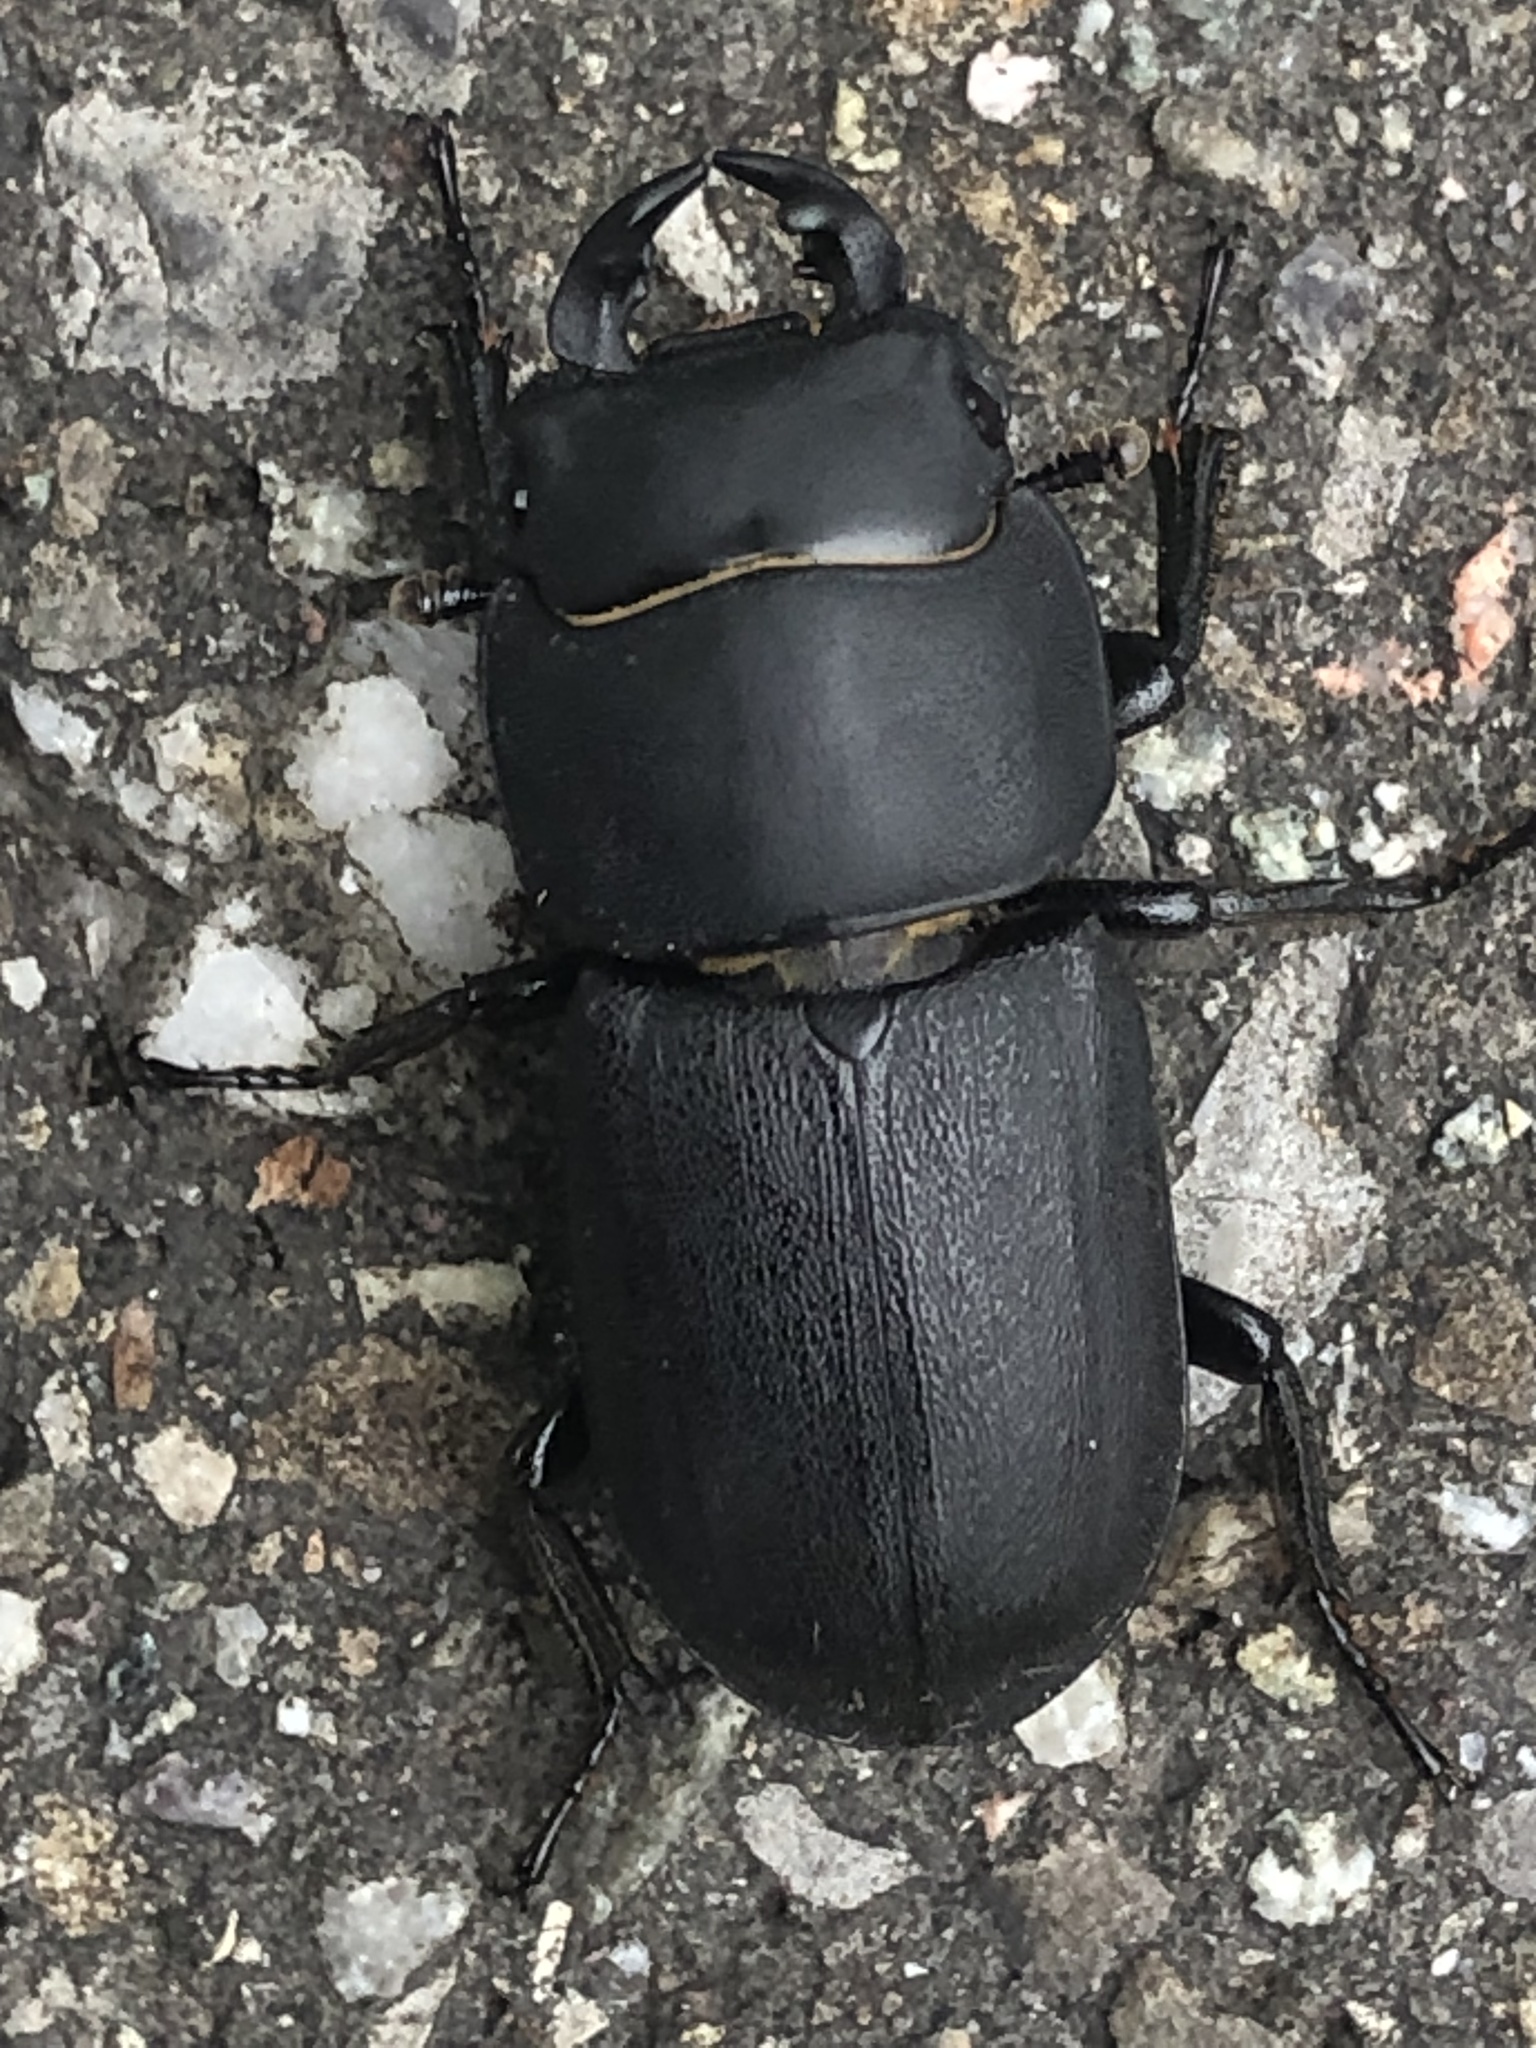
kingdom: Animalia
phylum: Arthropoda
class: Insecta
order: Coleoptera
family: Lucanidae
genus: Dorcus
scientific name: Dorcus parallelipipedus
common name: Lesser stag beetle
